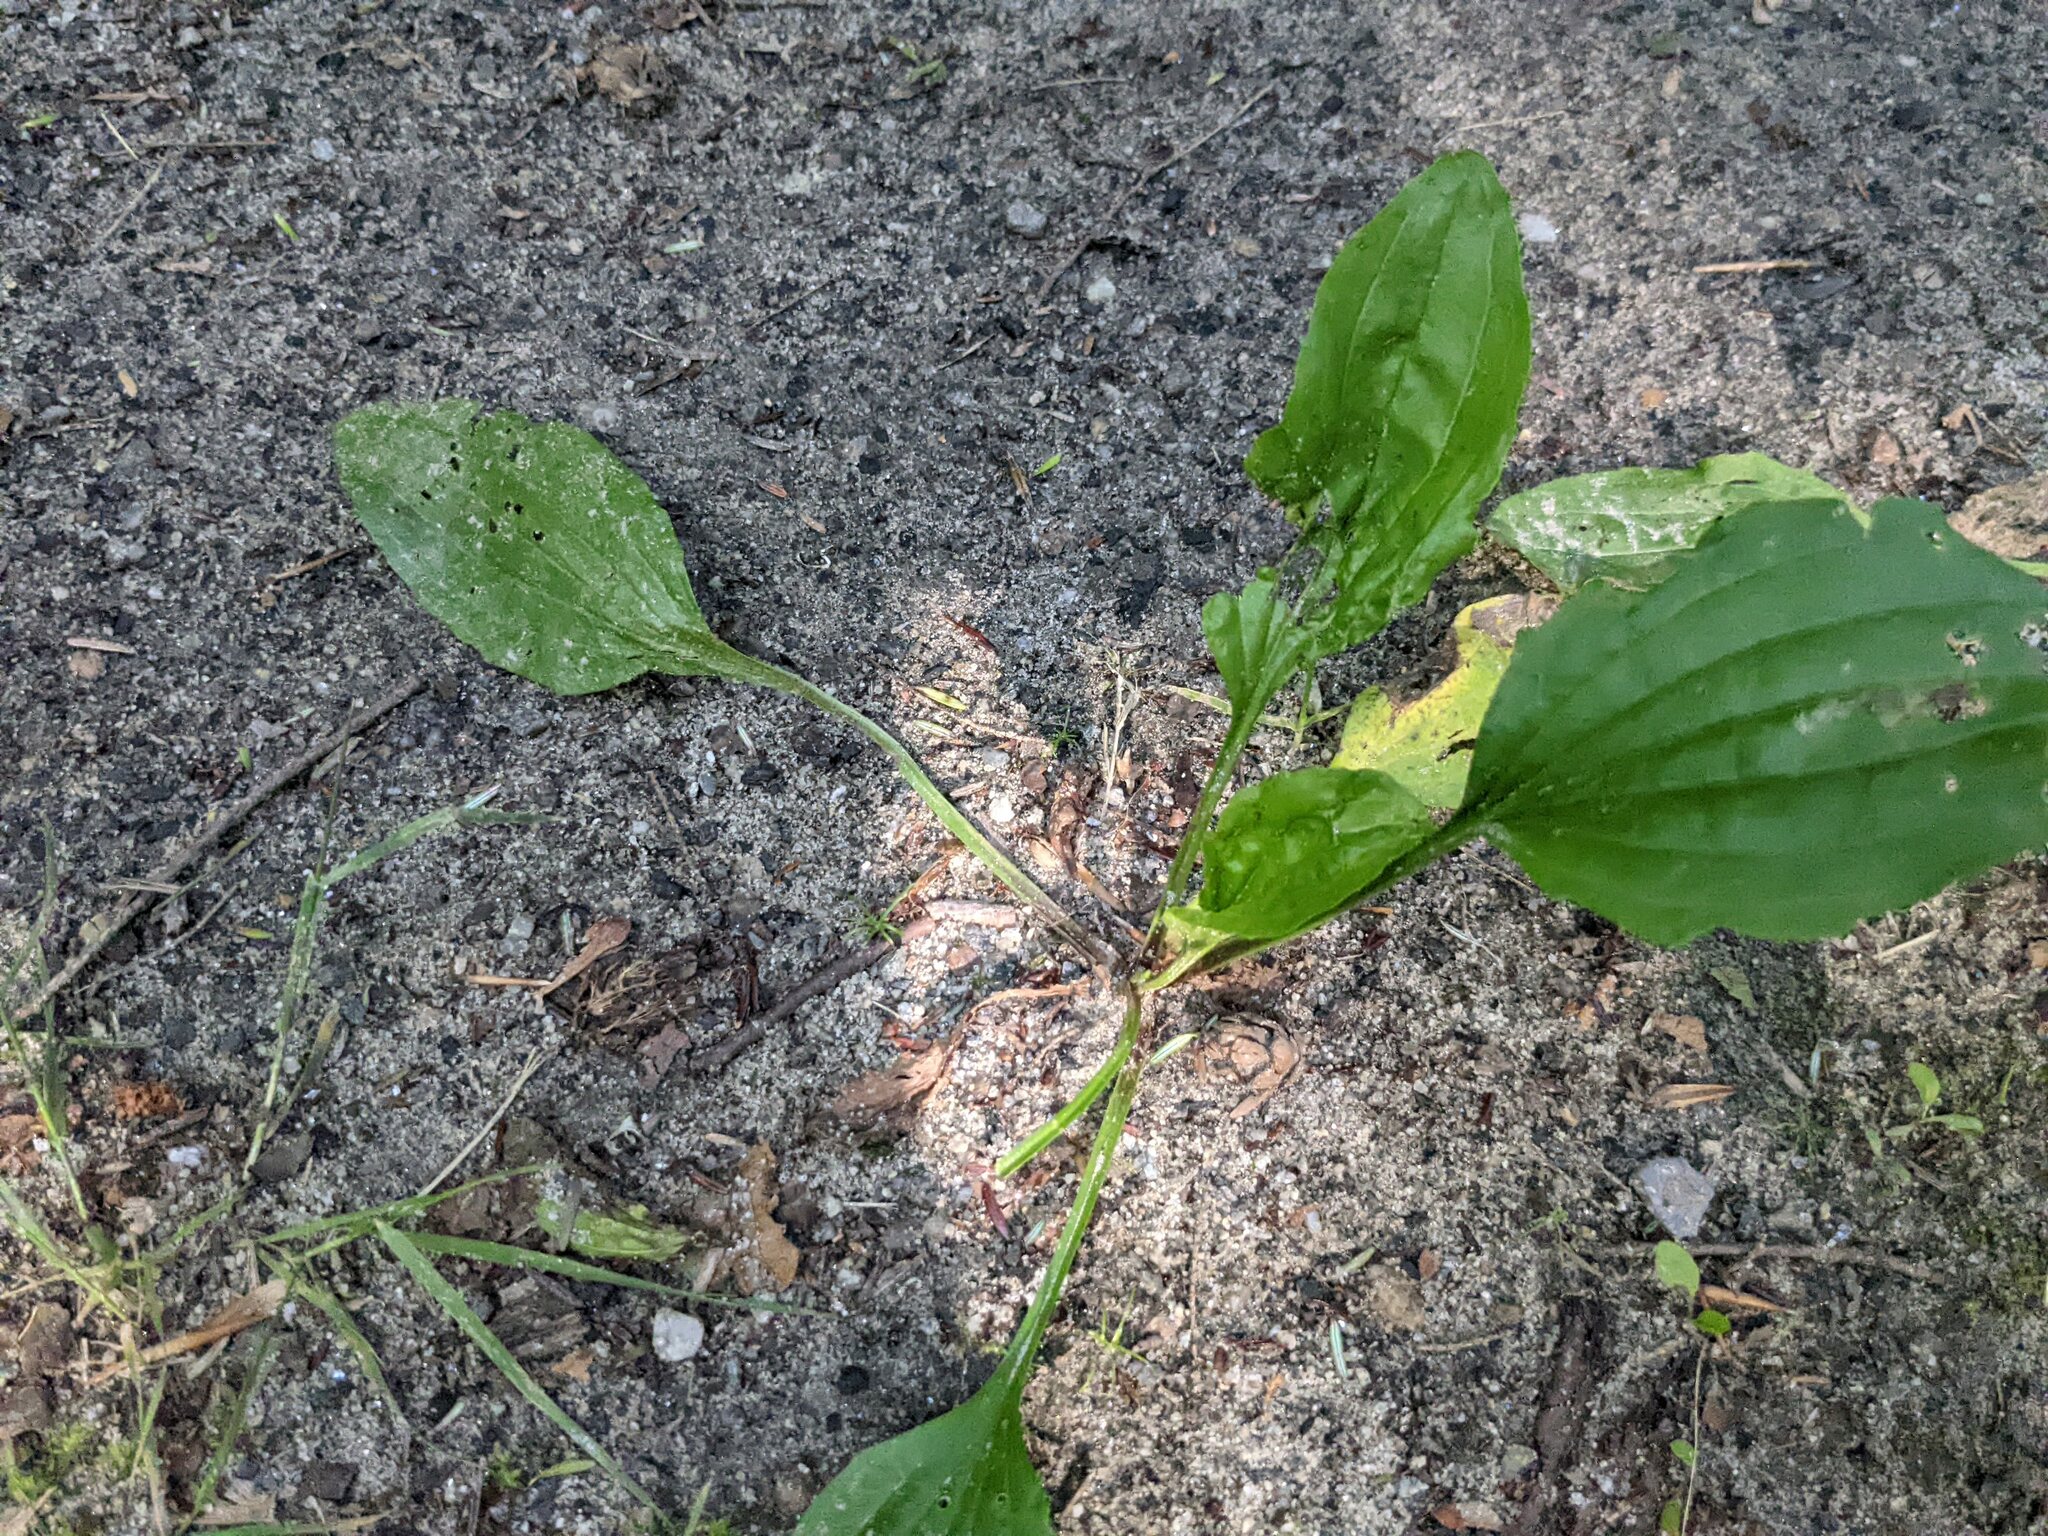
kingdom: Plantae
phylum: Tracheophyta
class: Magnoliopsida
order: Lamiales
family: Plantaginaceae
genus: Plantago
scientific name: Plantago rugelii
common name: American plantain
